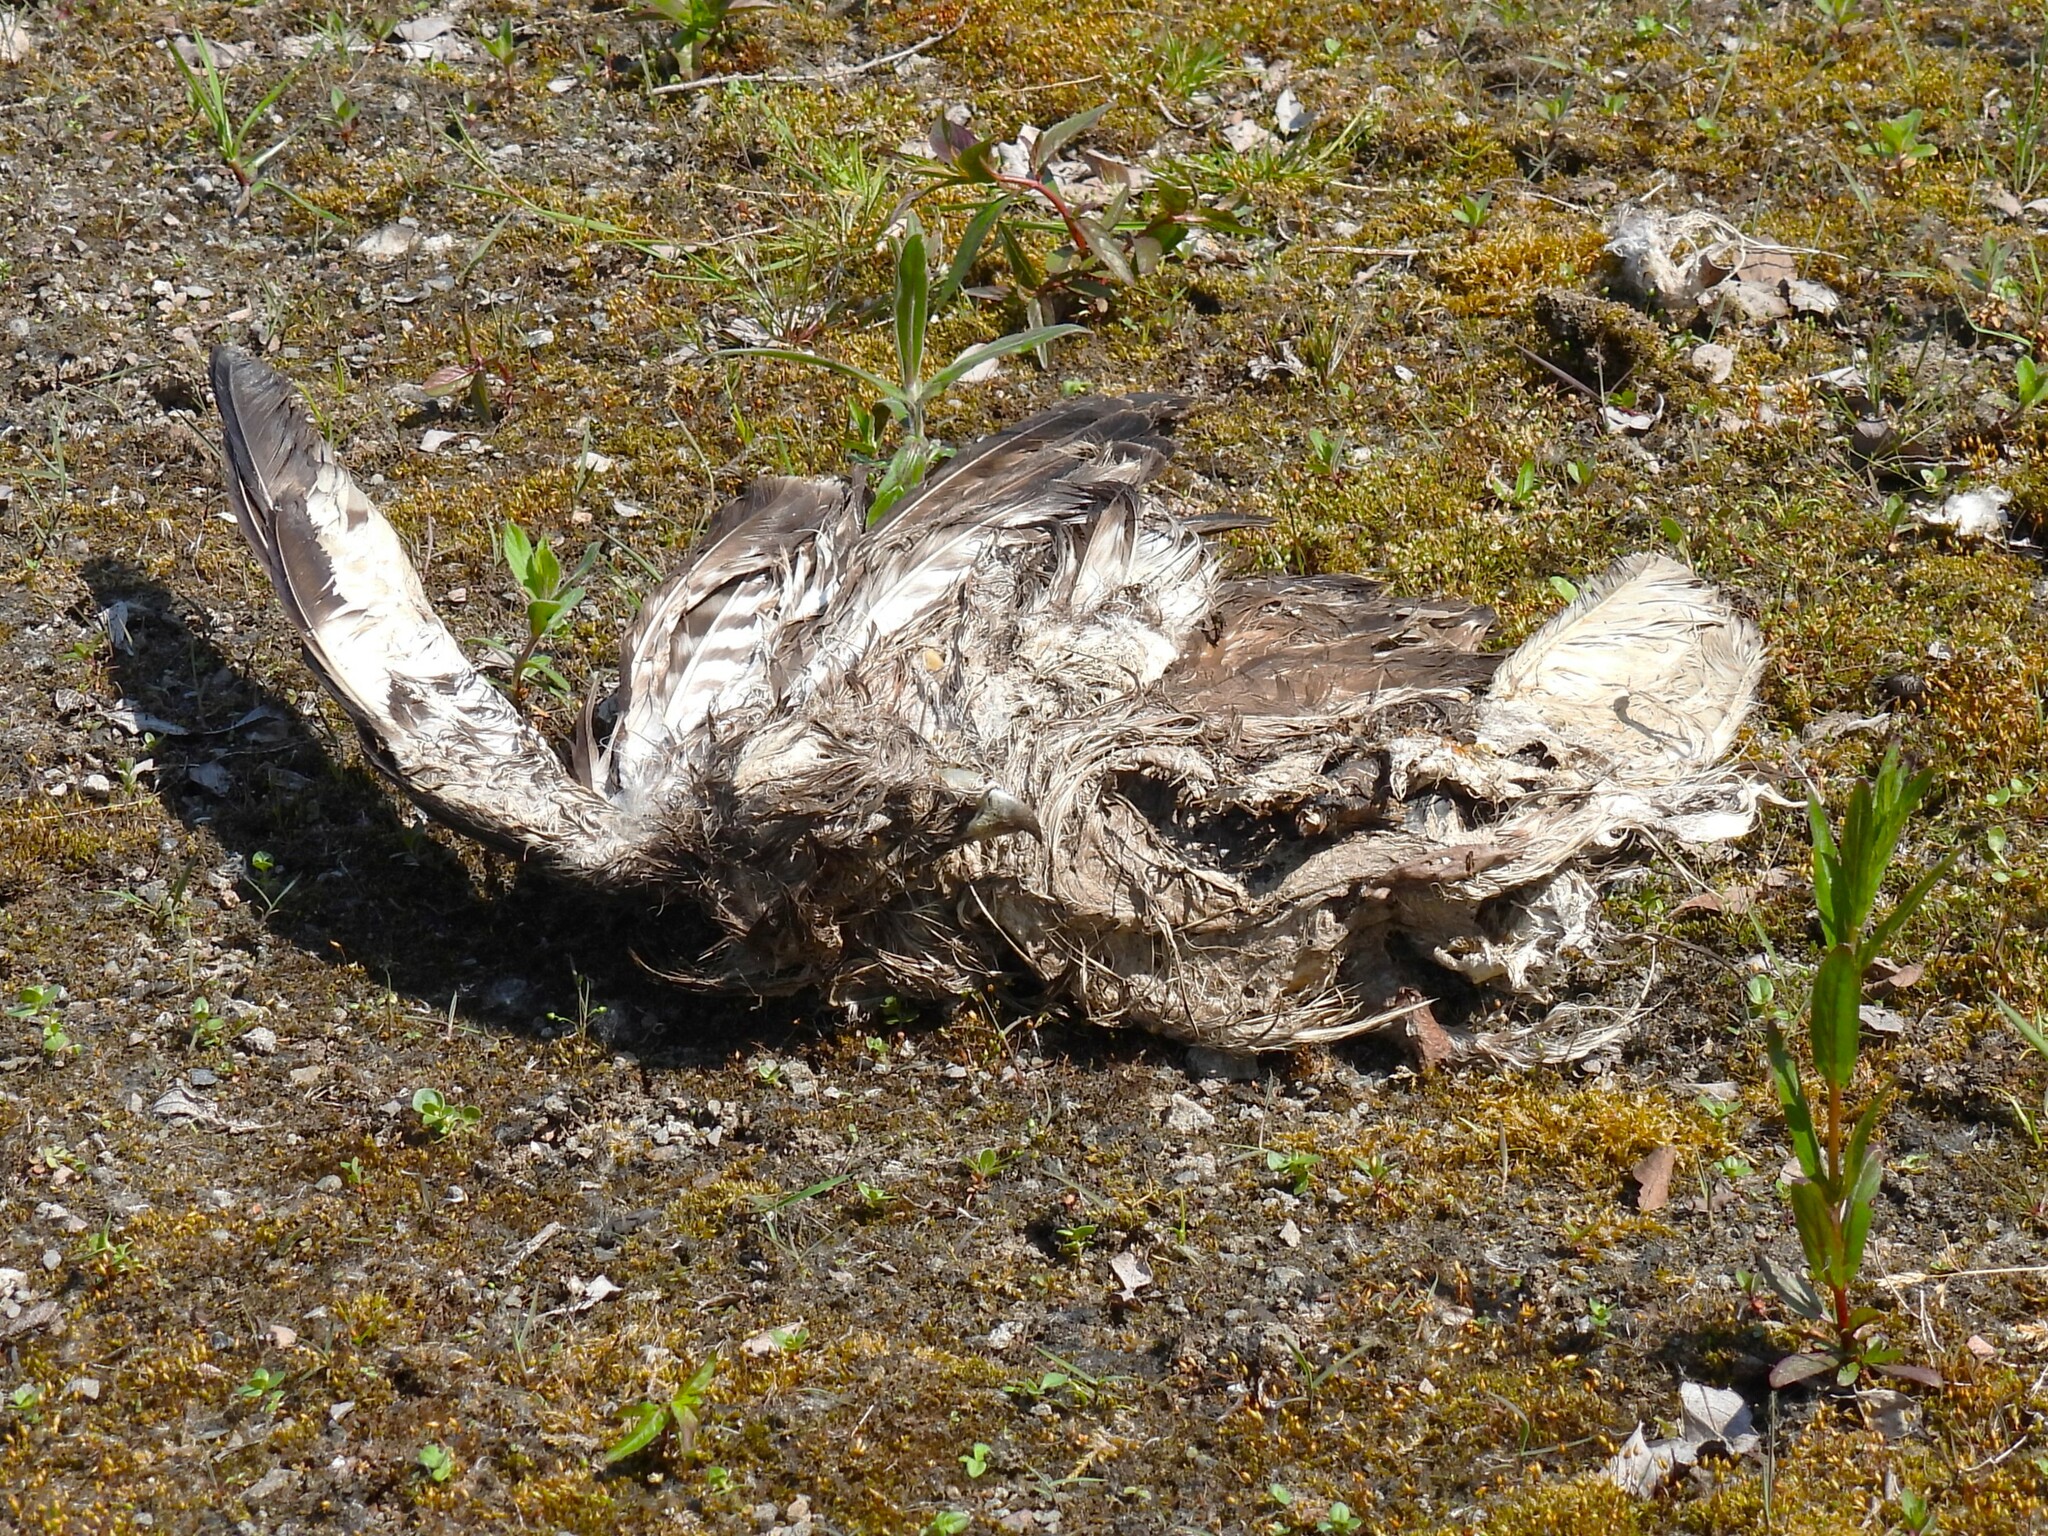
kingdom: Animalia
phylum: Chordata
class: Aves
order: Accipitriformes
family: Accipitridae
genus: Buteo
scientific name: Buteo buteo
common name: Common buzzard
